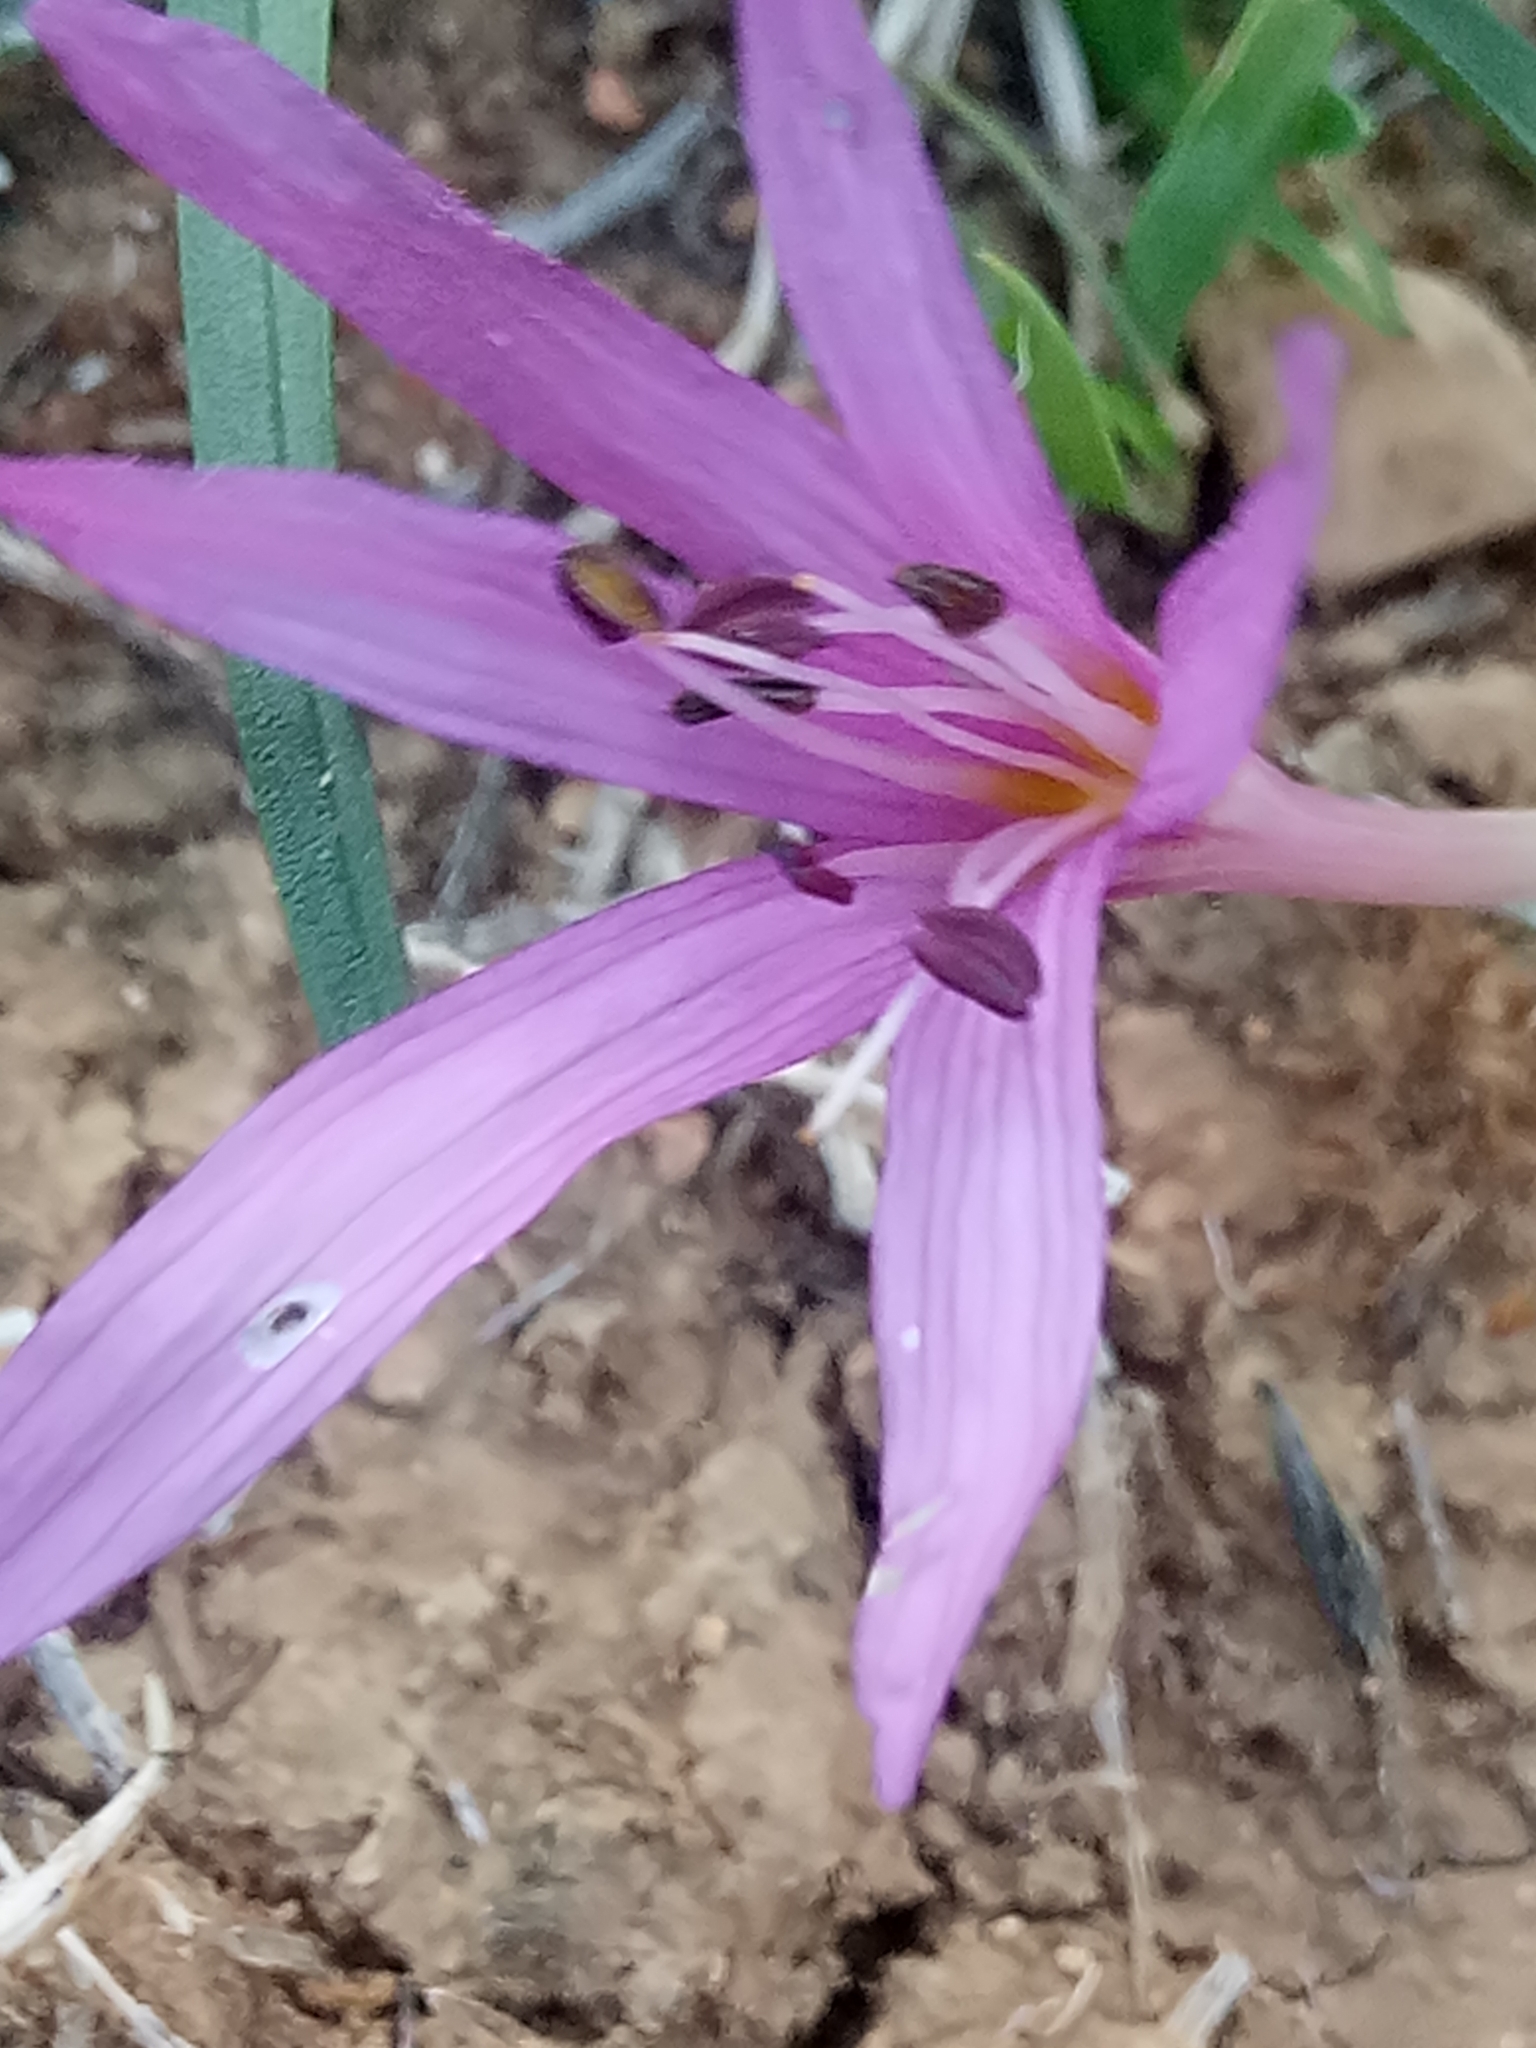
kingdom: Plantae
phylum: Tracheophyta
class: Liliopsida
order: Liliales
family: Colchicaceae
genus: Colchicum
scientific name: Colchicum cupanii
